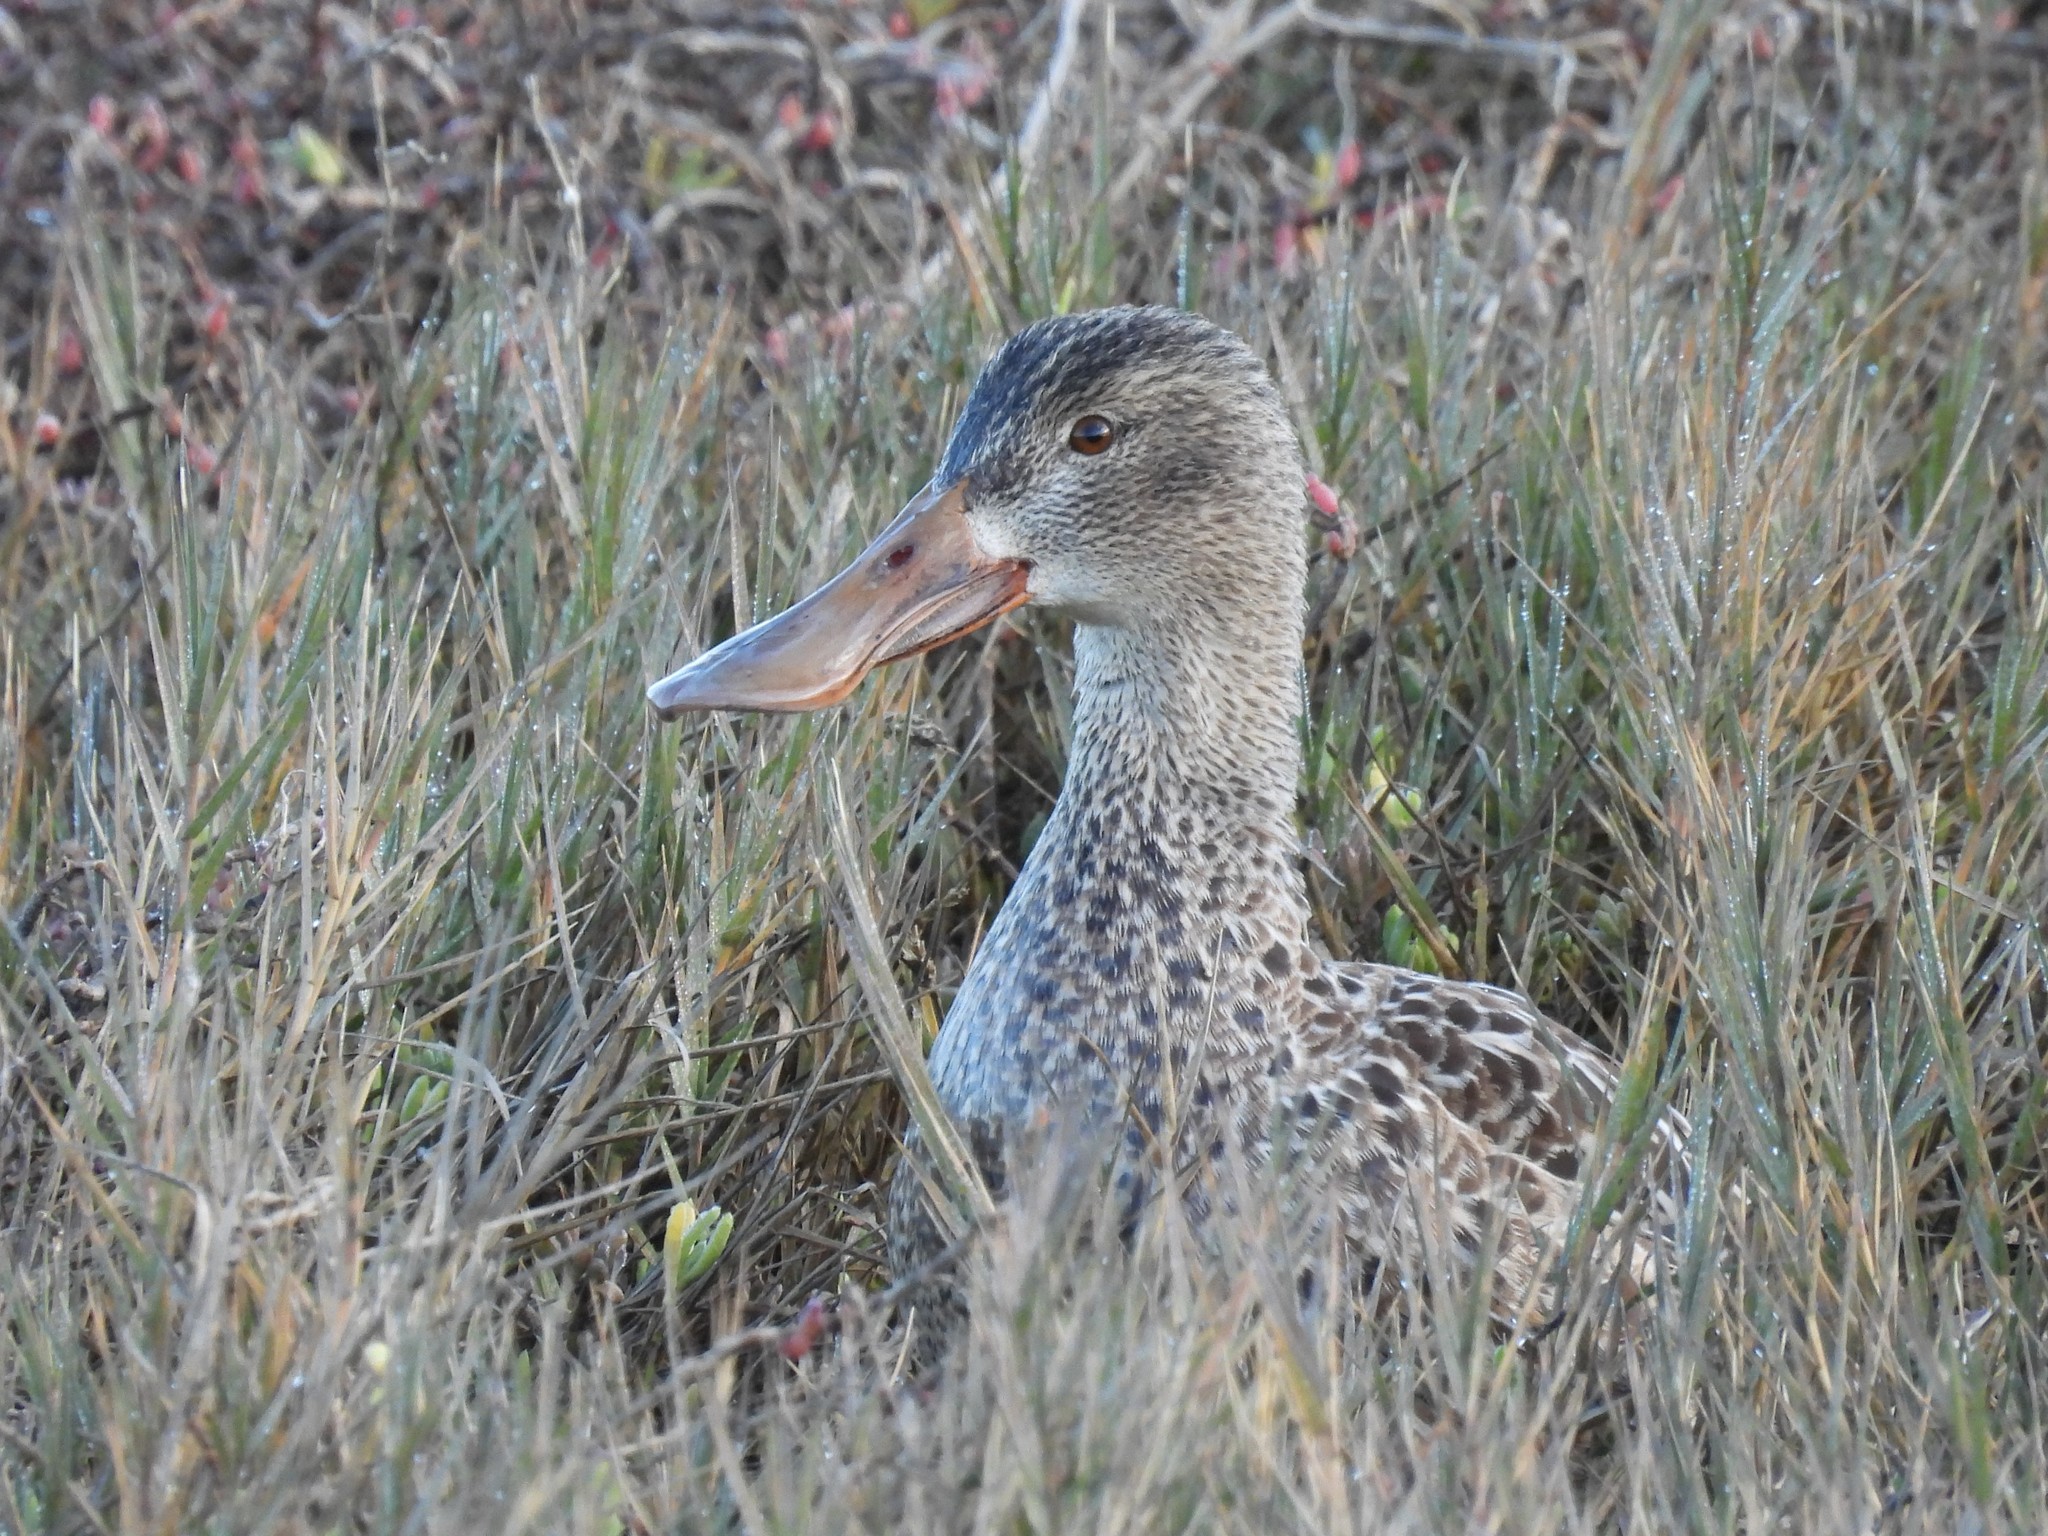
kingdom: Animalia
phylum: Chordata
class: Aves
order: Anseriformes
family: Anatidae
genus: Spatula
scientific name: Spatula clypeata
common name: Northern shoveler
